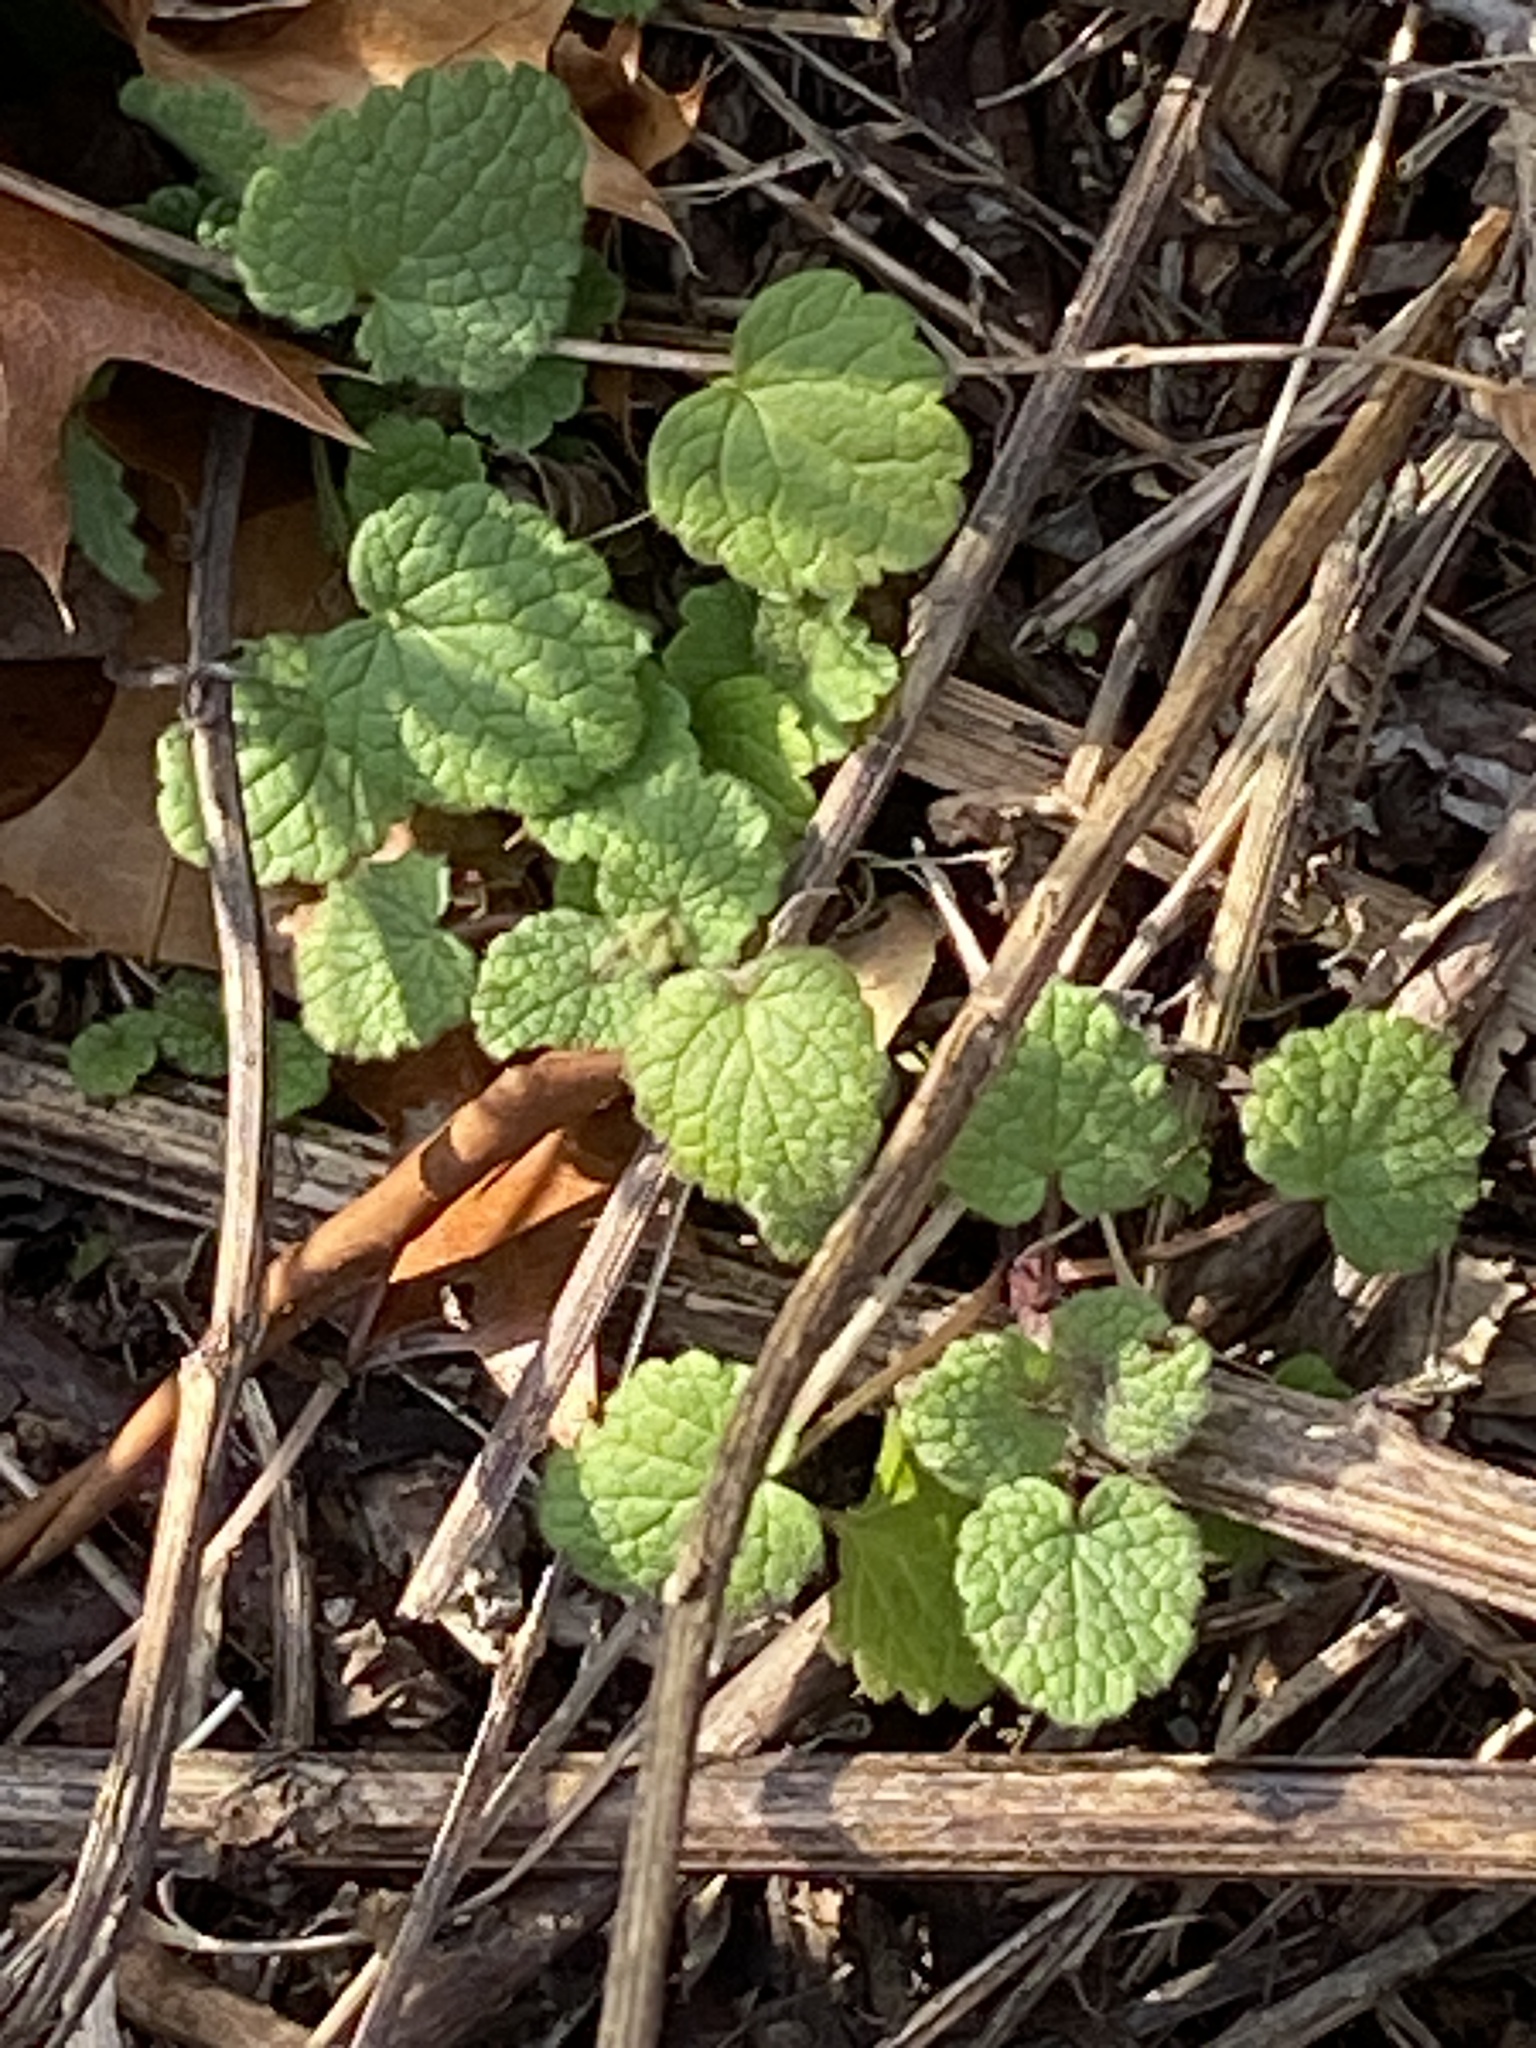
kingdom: Plantae
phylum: Tracheophyta
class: Magnoliopsida
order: Lamiales
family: Lamiaceae
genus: Lamium
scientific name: Lamium purpureum
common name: Red dead-nettle
